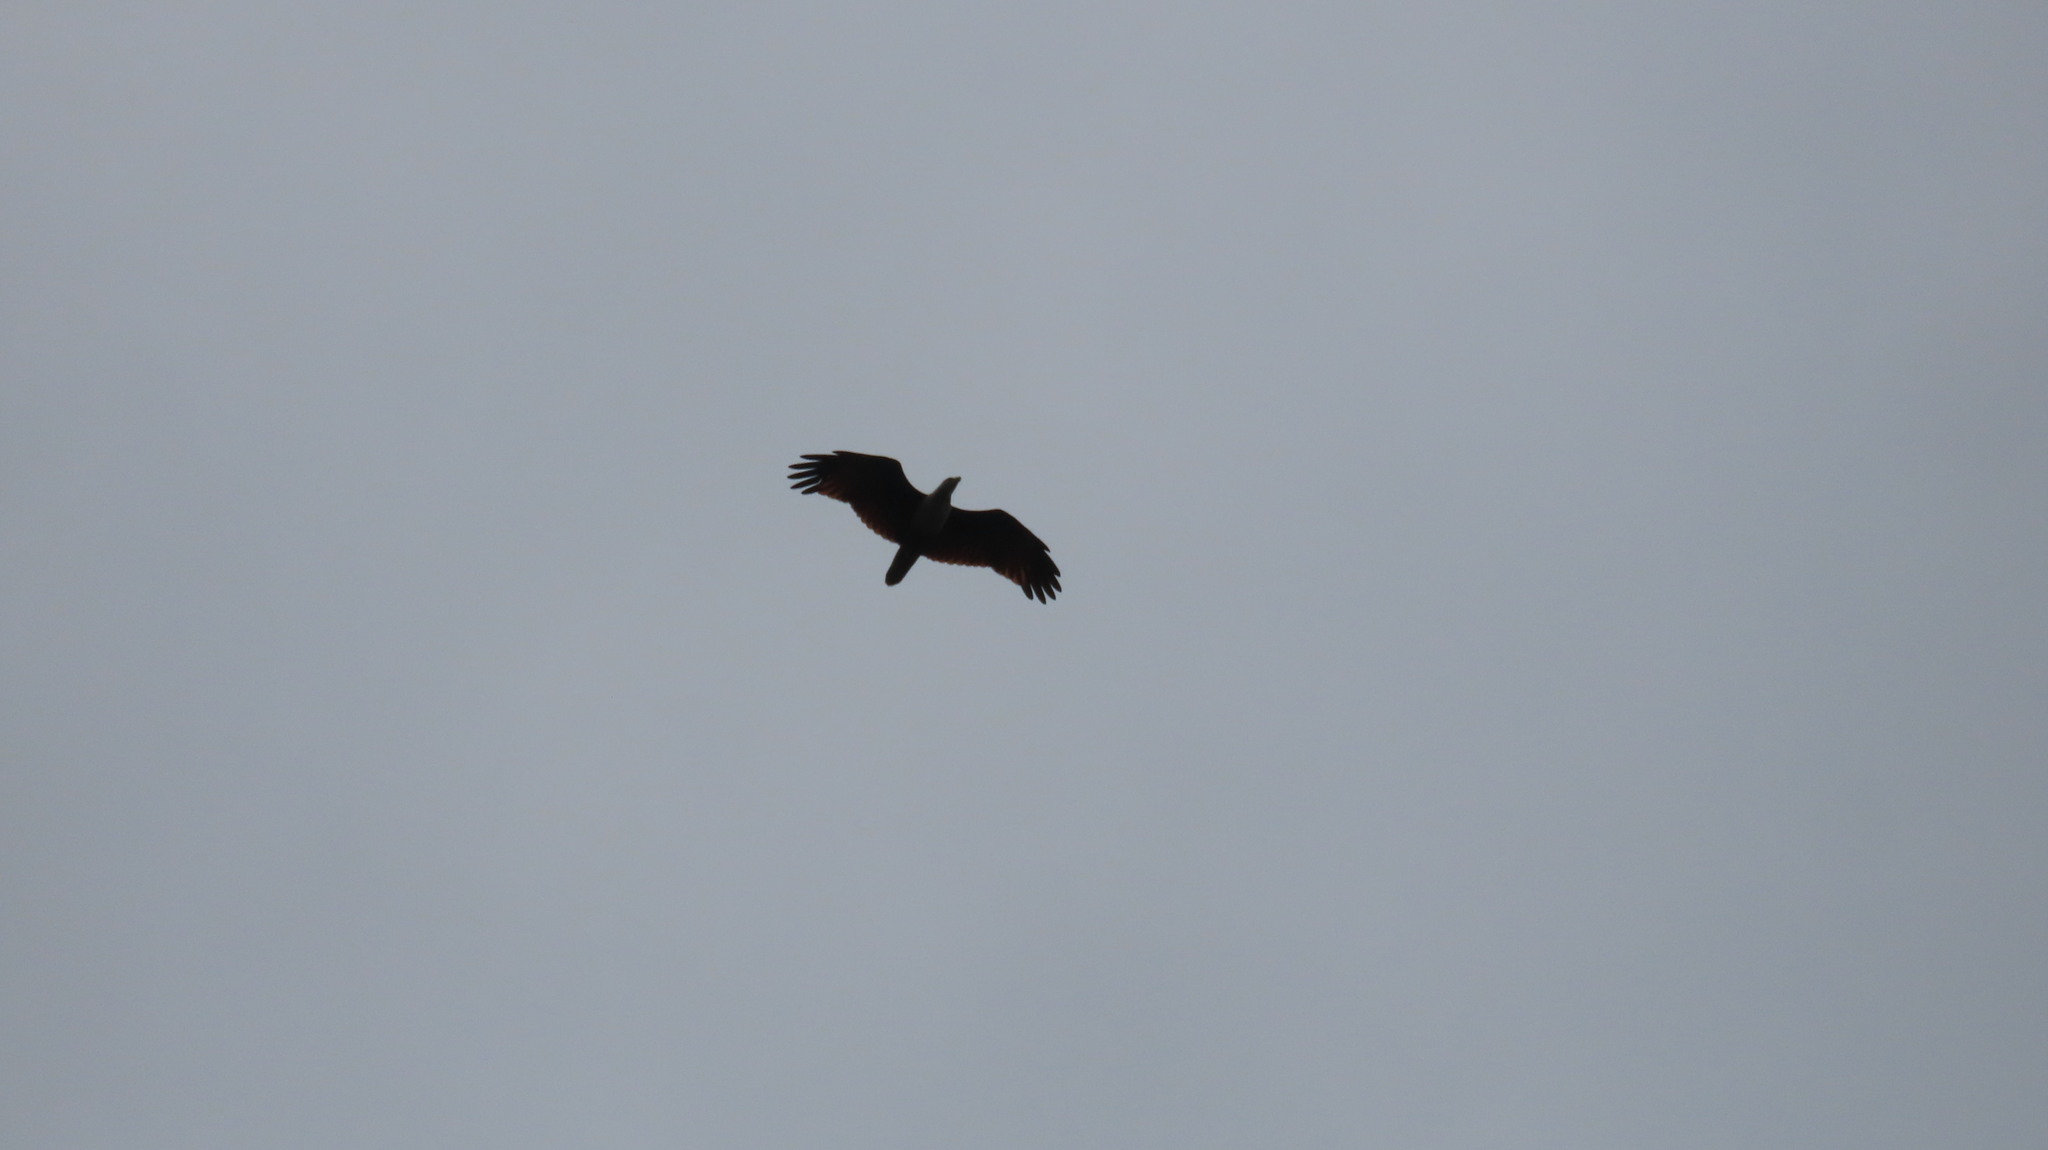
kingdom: Animalia
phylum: Chordata
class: Aves
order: Accipitriformes
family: Accipitridae
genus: Haliastur
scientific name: Haliastur indus
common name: Brahminy kite
